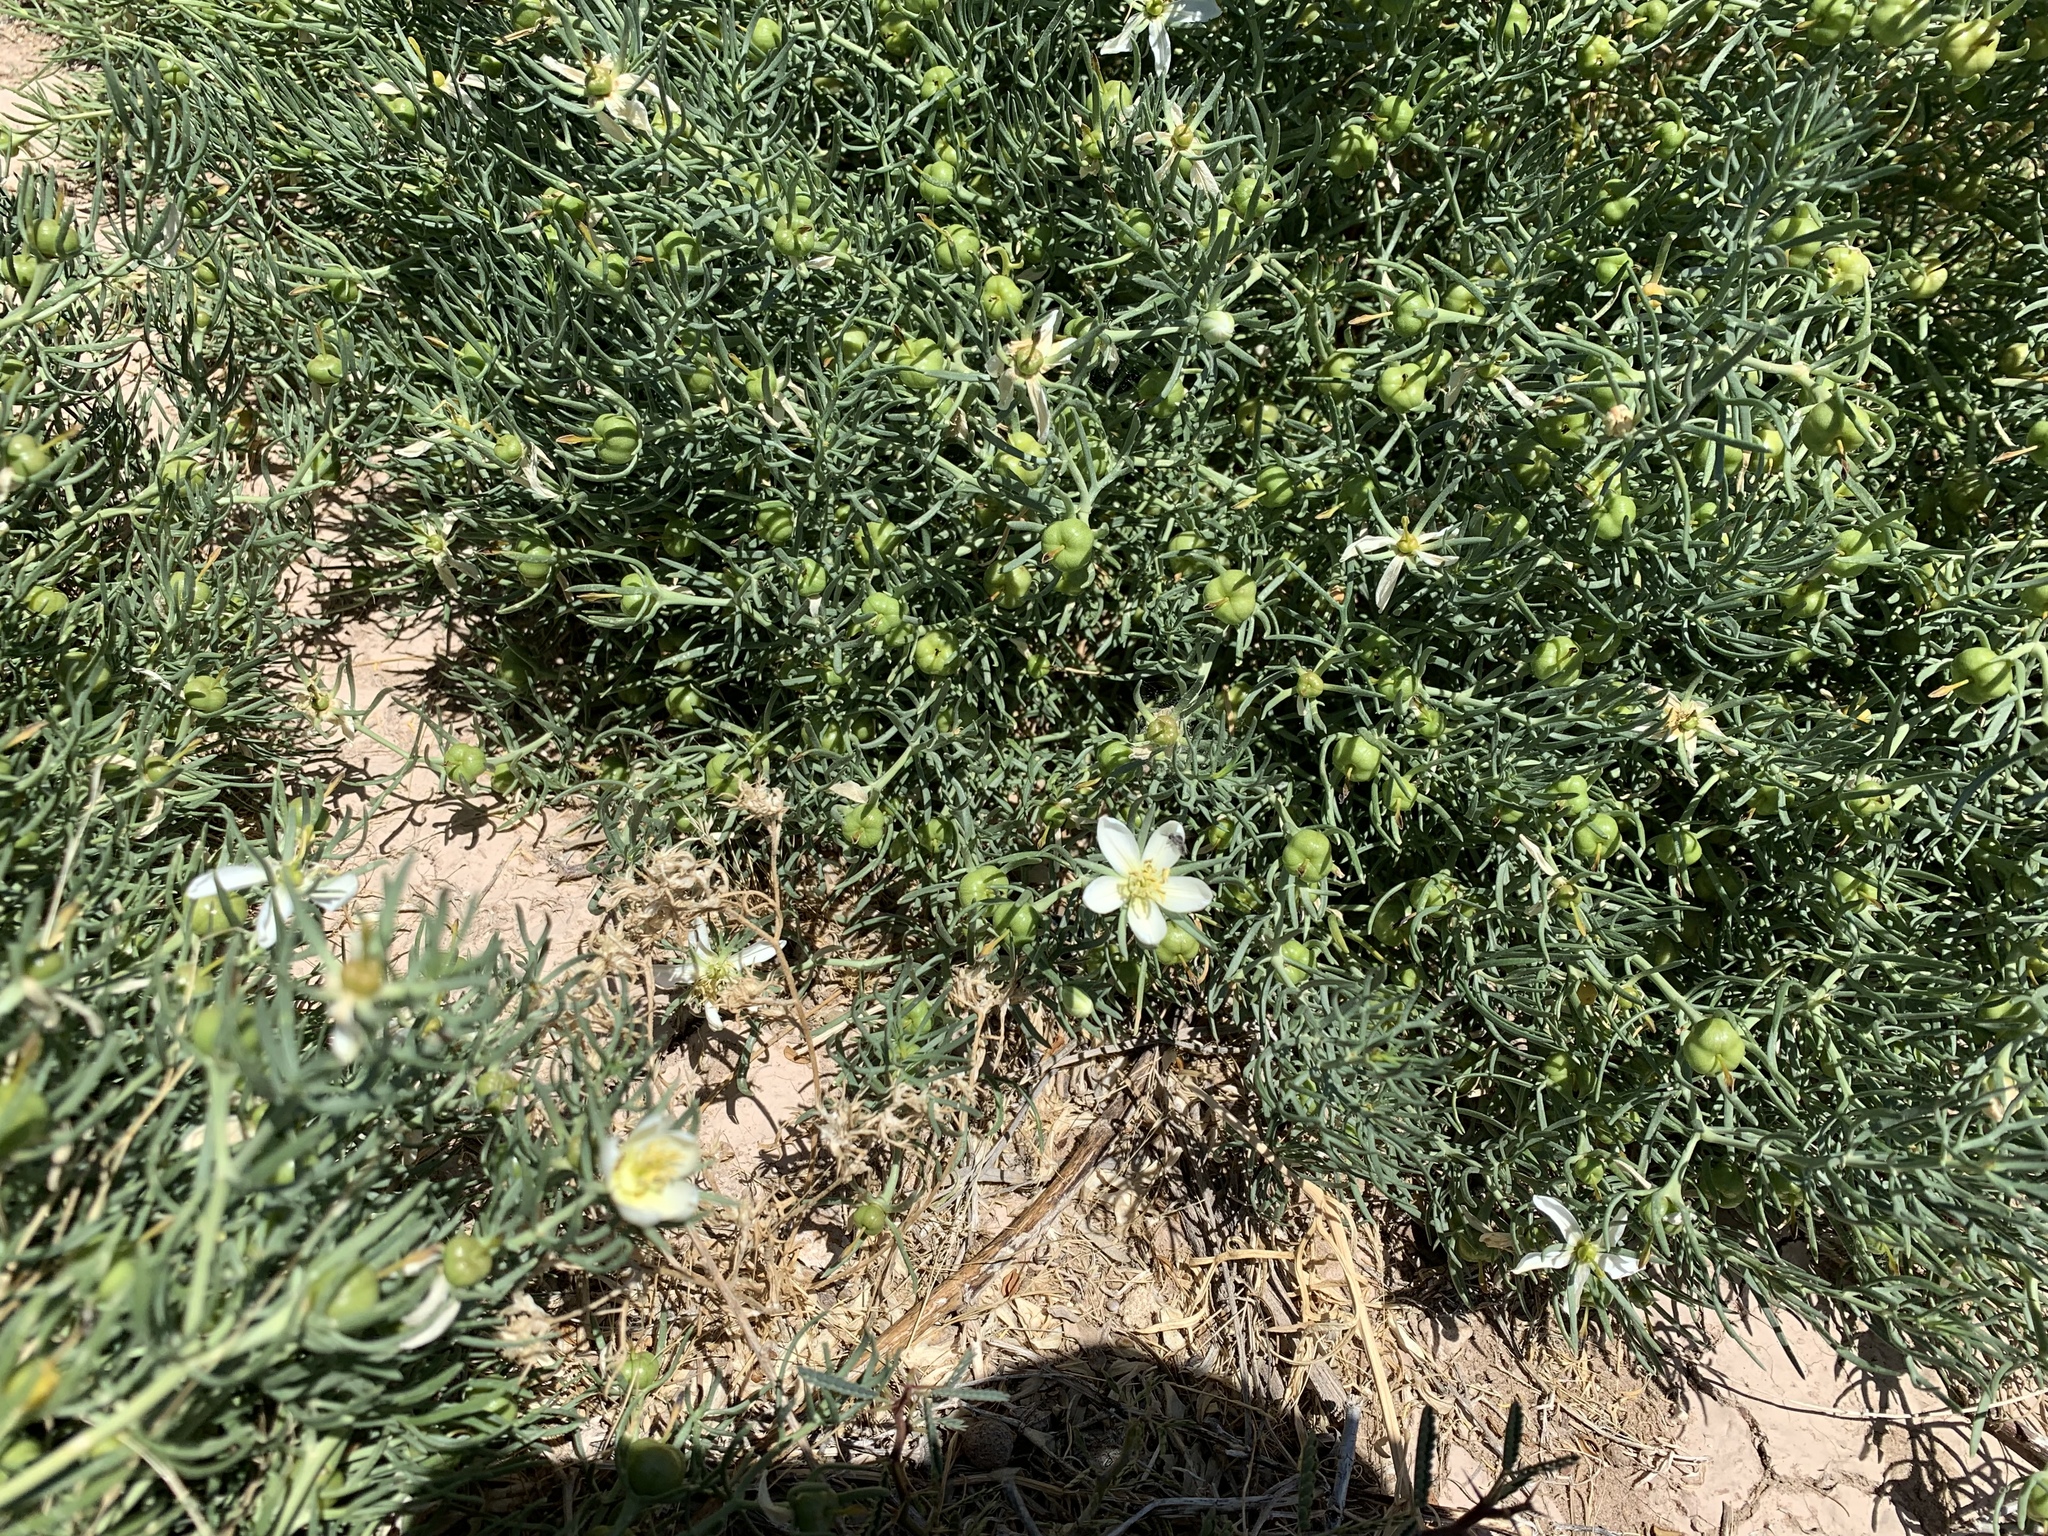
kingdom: Plantae
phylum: Tracheophyta
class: Magnoliopsida
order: Sapindales
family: Tetradiclidaceae
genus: Peganum
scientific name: Peganum harmala
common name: Harmal peganum
